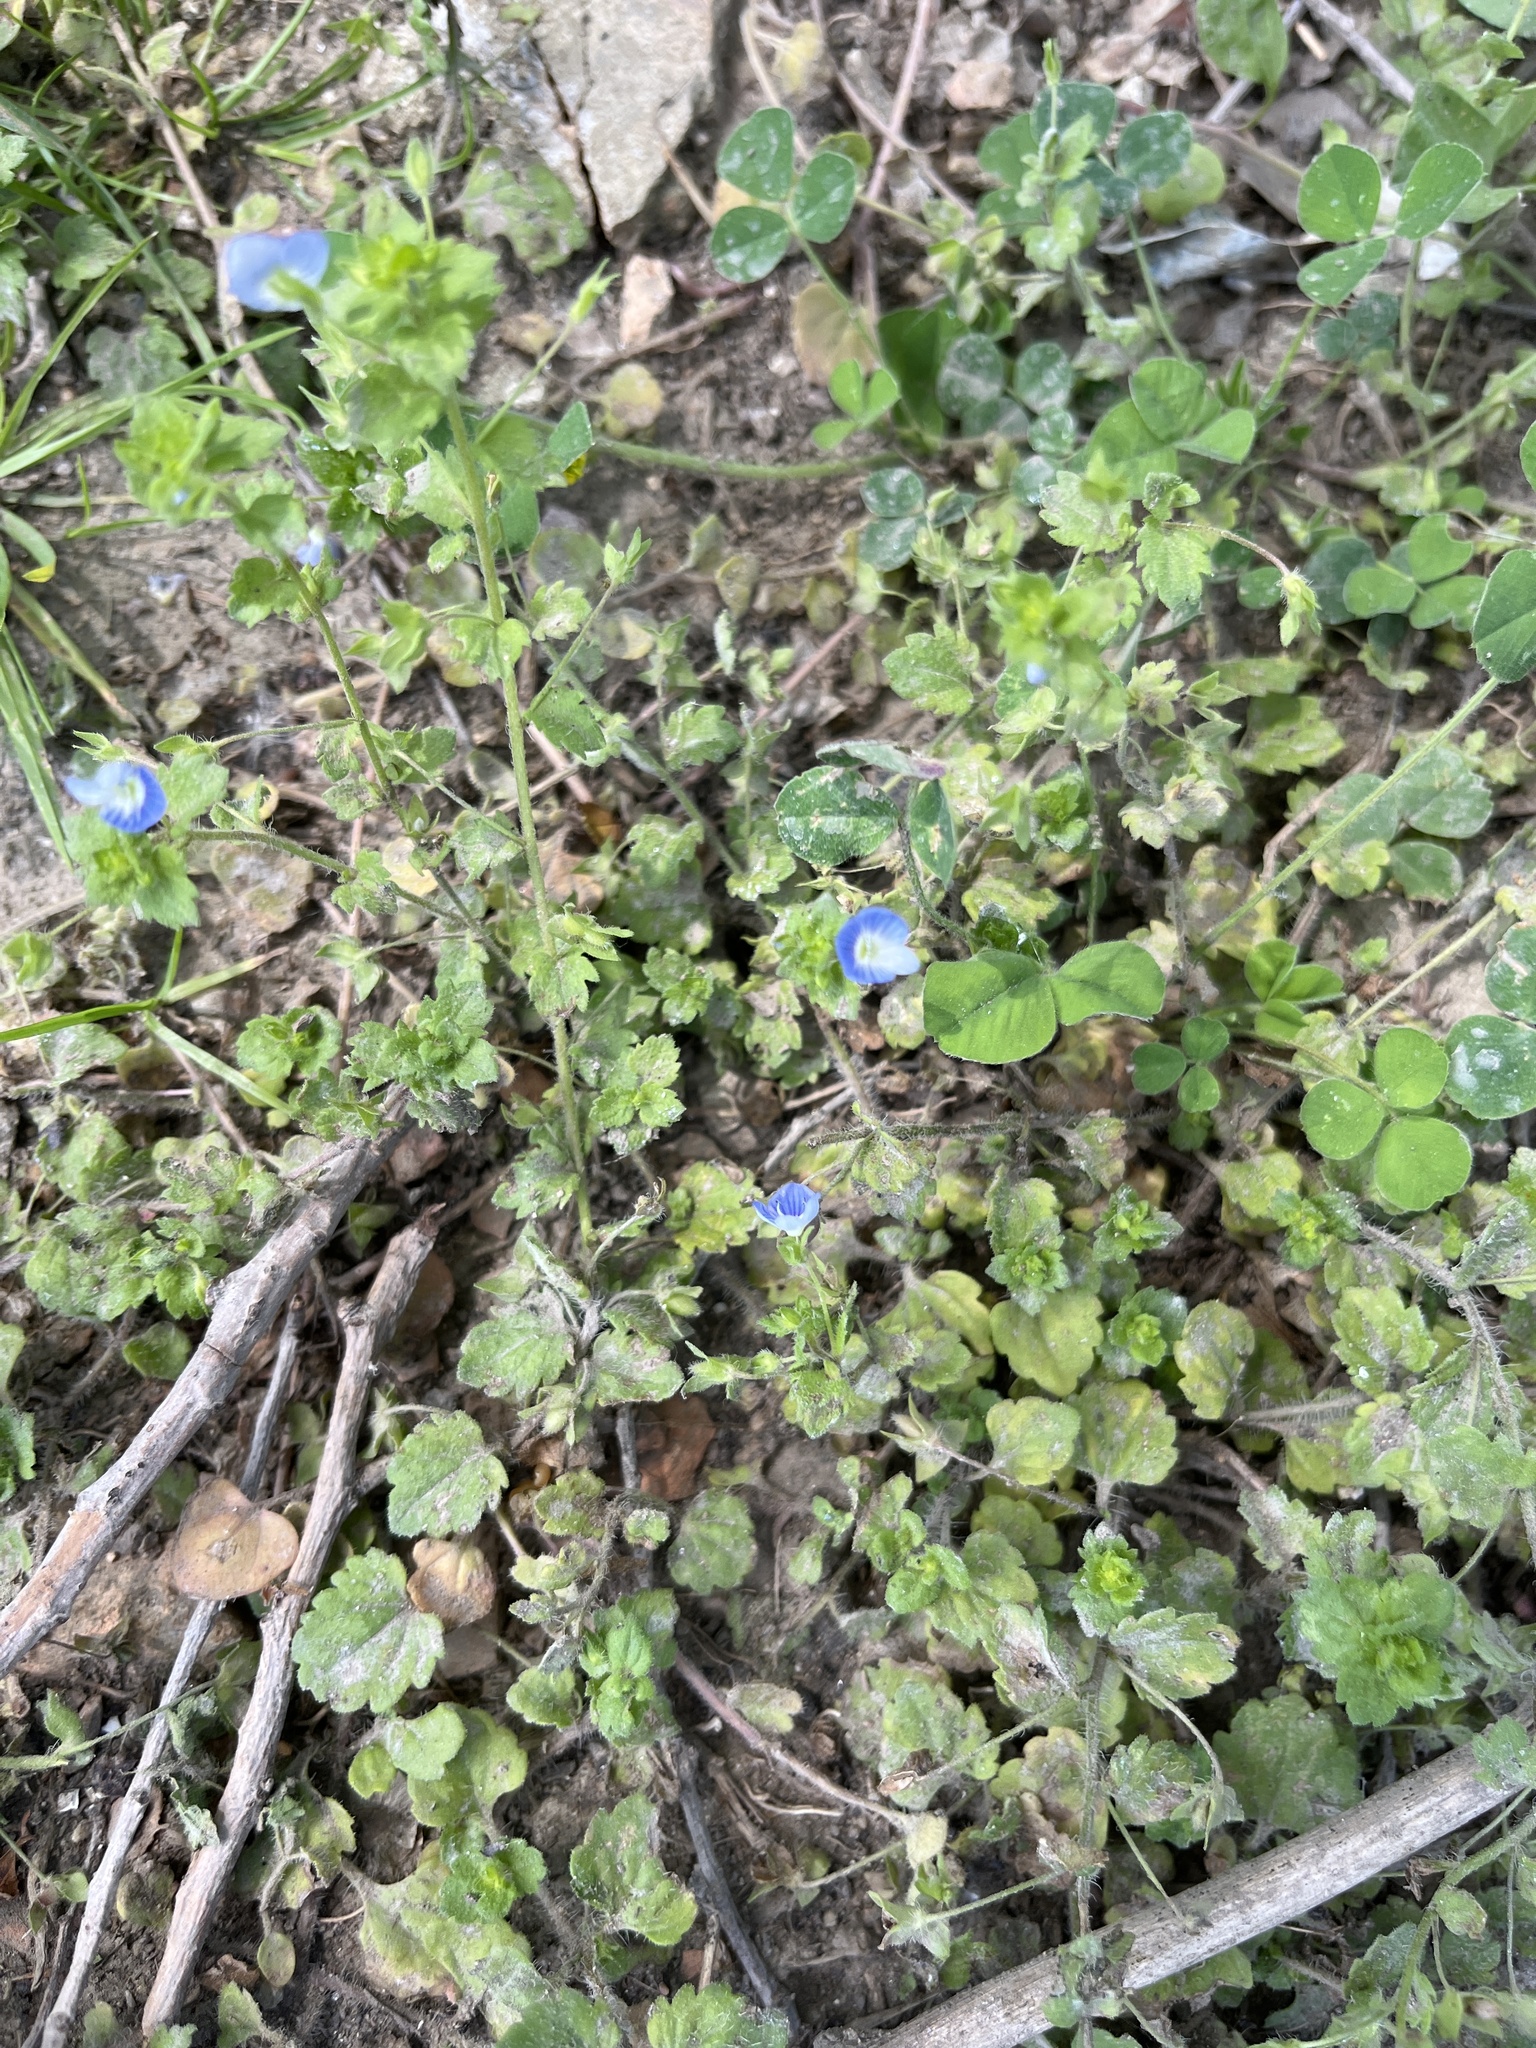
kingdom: Plantae
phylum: Tracheophyta
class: Magnoliopsida
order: Lamiales
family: Plantaginaceae
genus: Veronica
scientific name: Veronica persica
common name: Common field-speedwell
